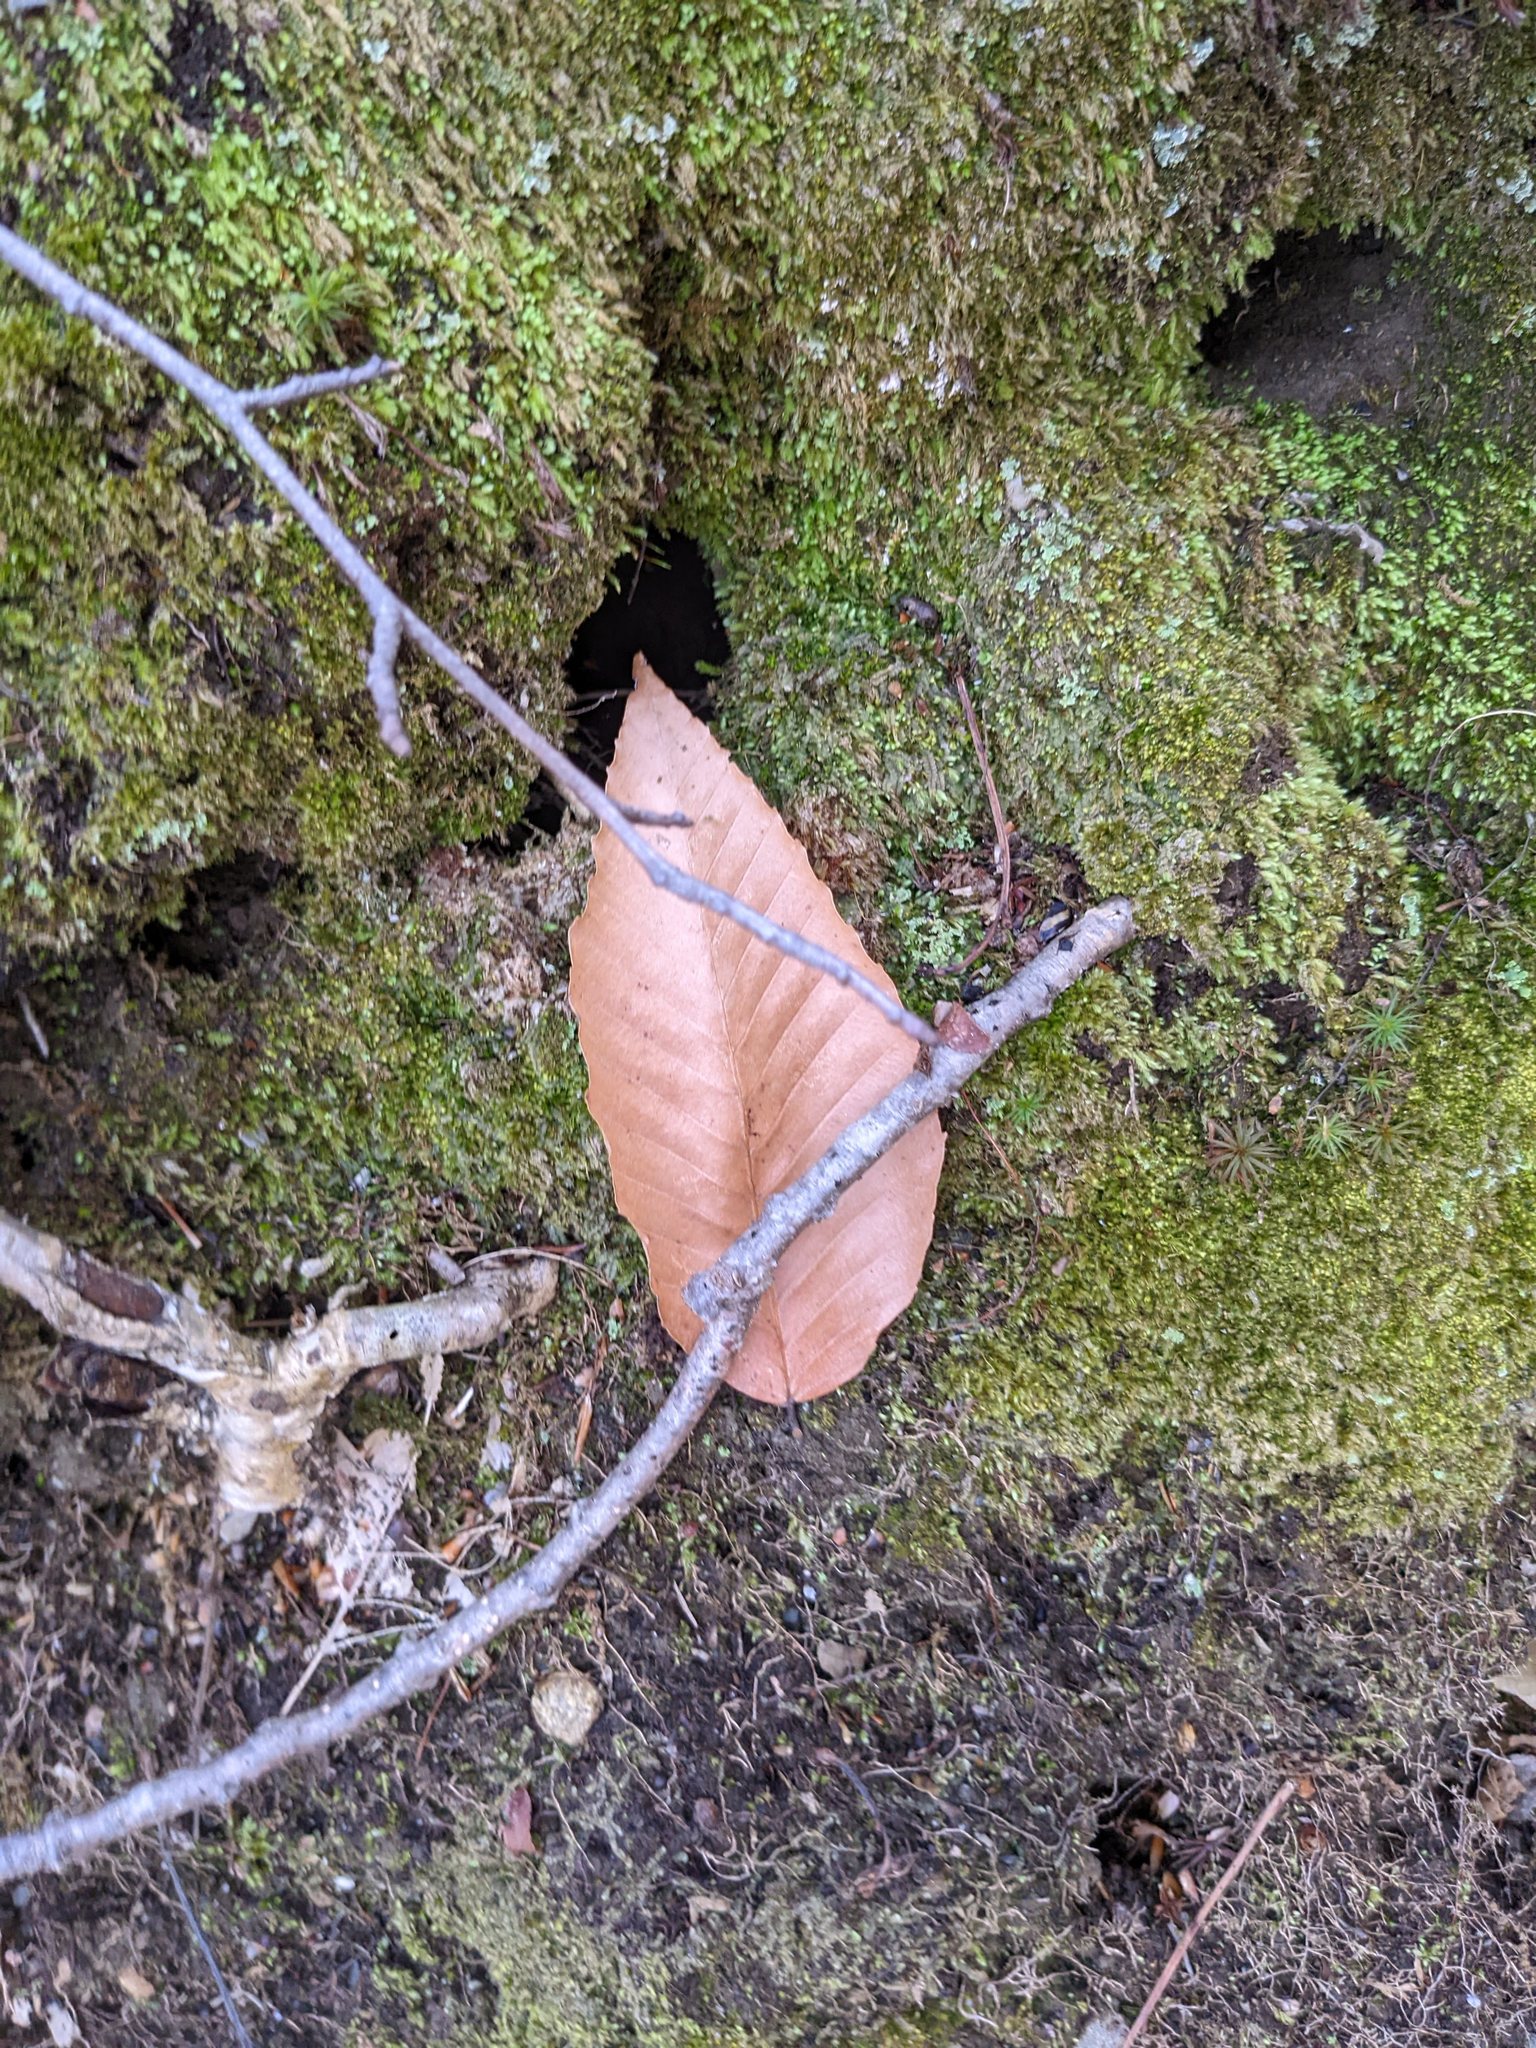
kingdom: Plantae
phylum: Tracheophyta
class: Magnoliopsida
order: Fagales
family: Fagaceae
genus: Fagus
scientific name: Fagus grandifolia
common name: American beech
